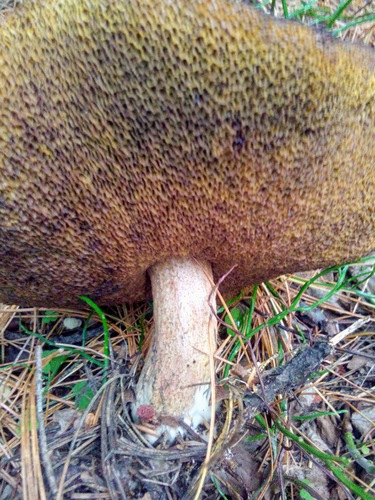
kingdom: Fungi
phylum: Basidiomycota
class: Agaricomycetes
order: Boletales
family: Suillaceae
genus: Suillus
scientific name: Suillus placidus
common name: Slippery white bolete
